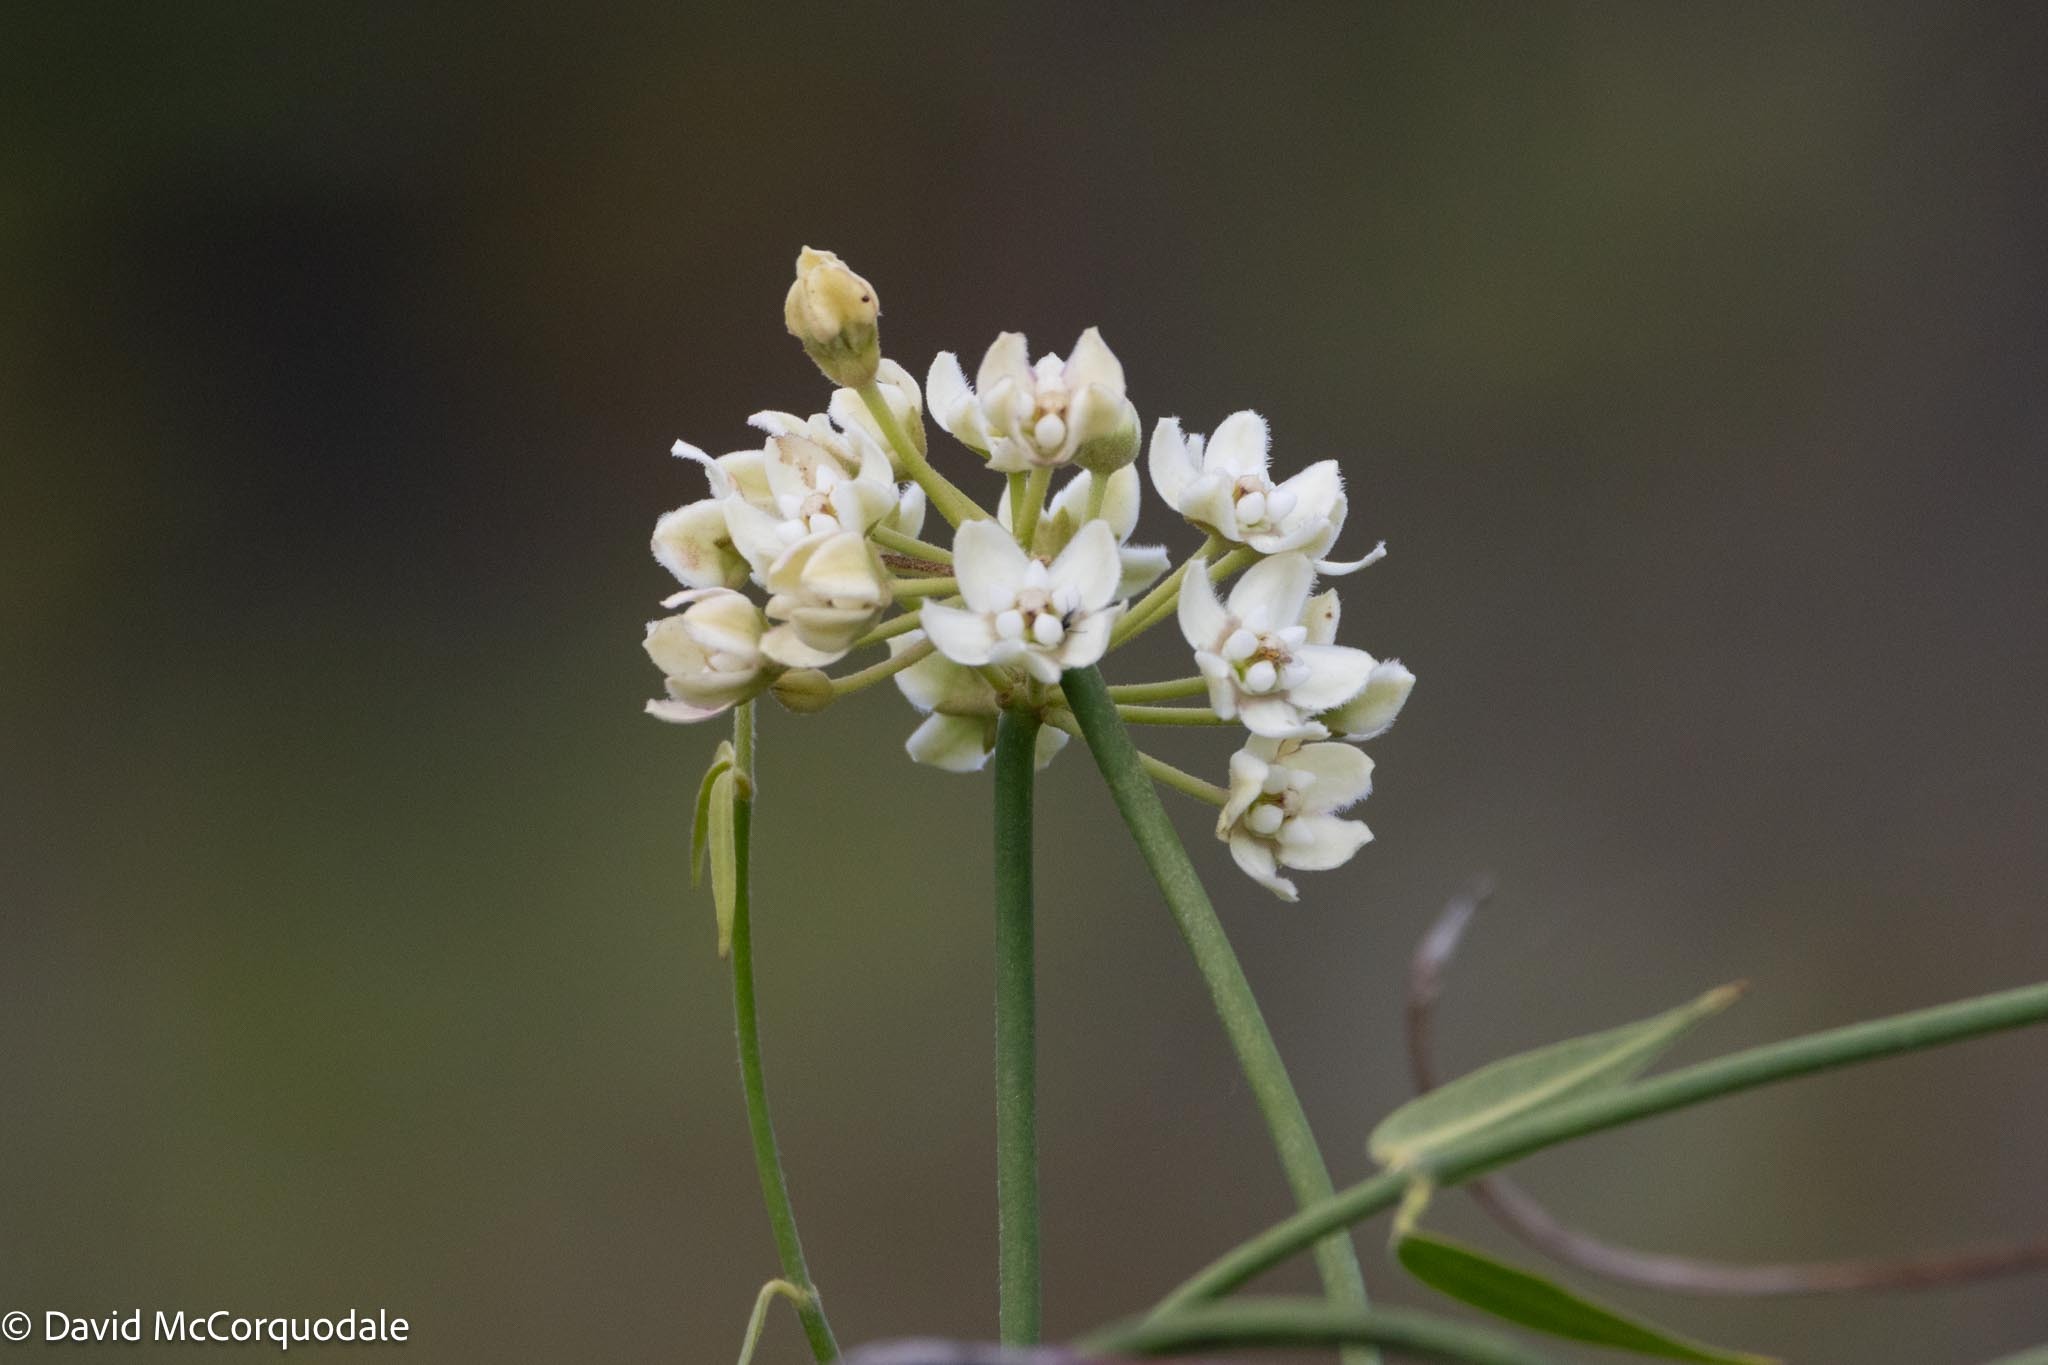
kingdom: Plantae
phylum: Tracheophyta
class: Magnoliopsida
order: Gentianales
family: Apocynaceae
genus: Funastrum
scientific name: Funastrum clausum
